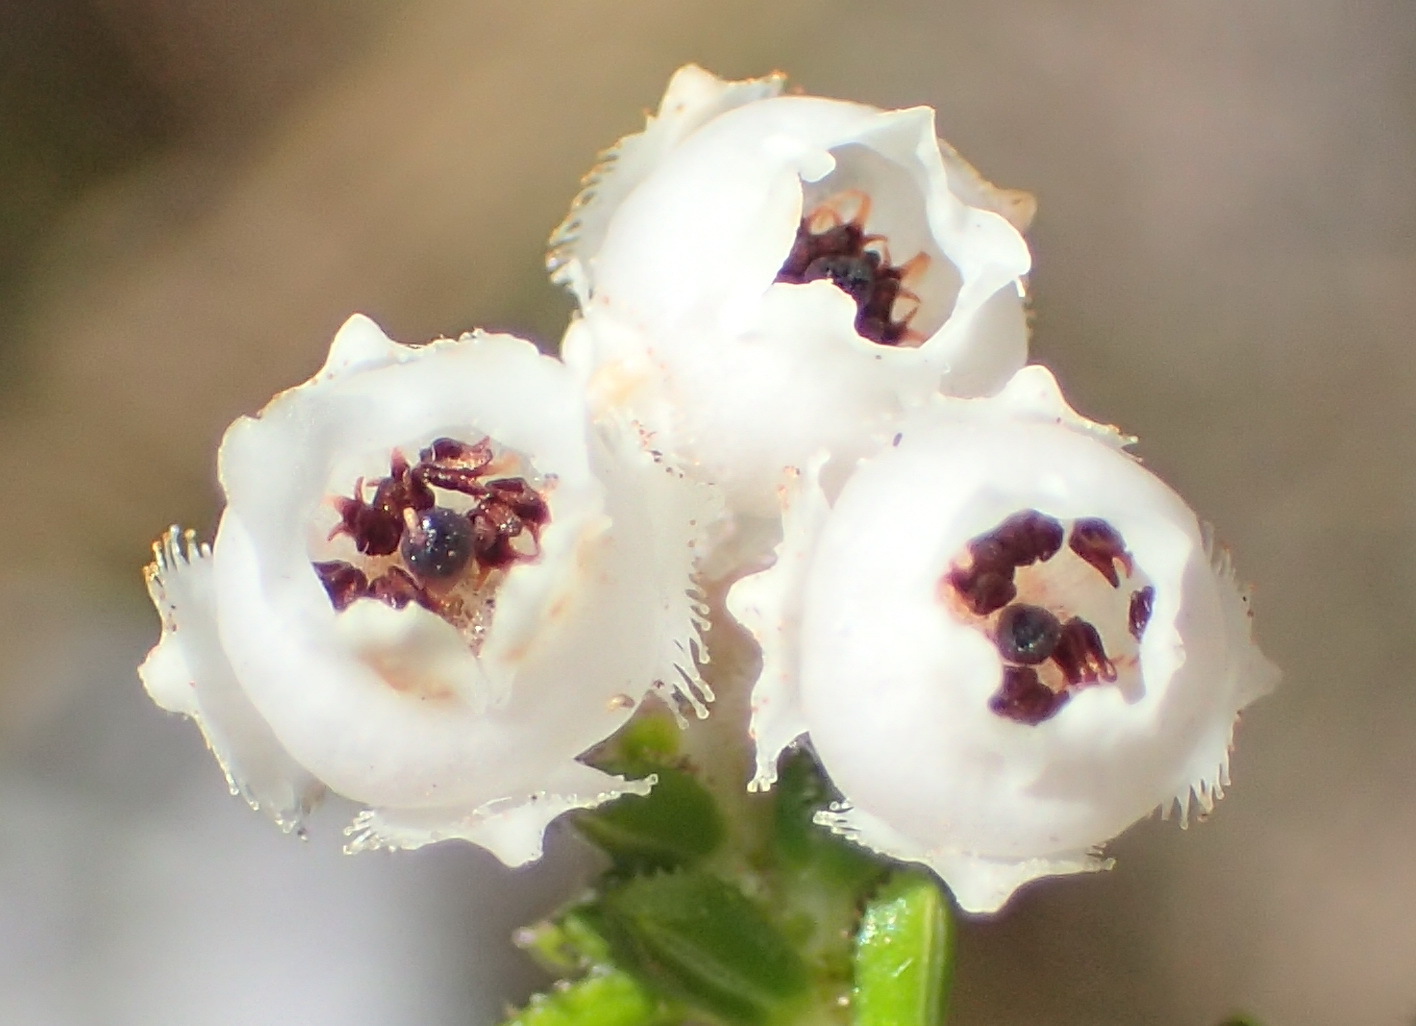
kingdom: Plantae
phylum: Tracheophyta
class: Magnoliopsida
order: Ericales
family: Ericaceae
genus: Erica
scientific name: Erica fimbriata
